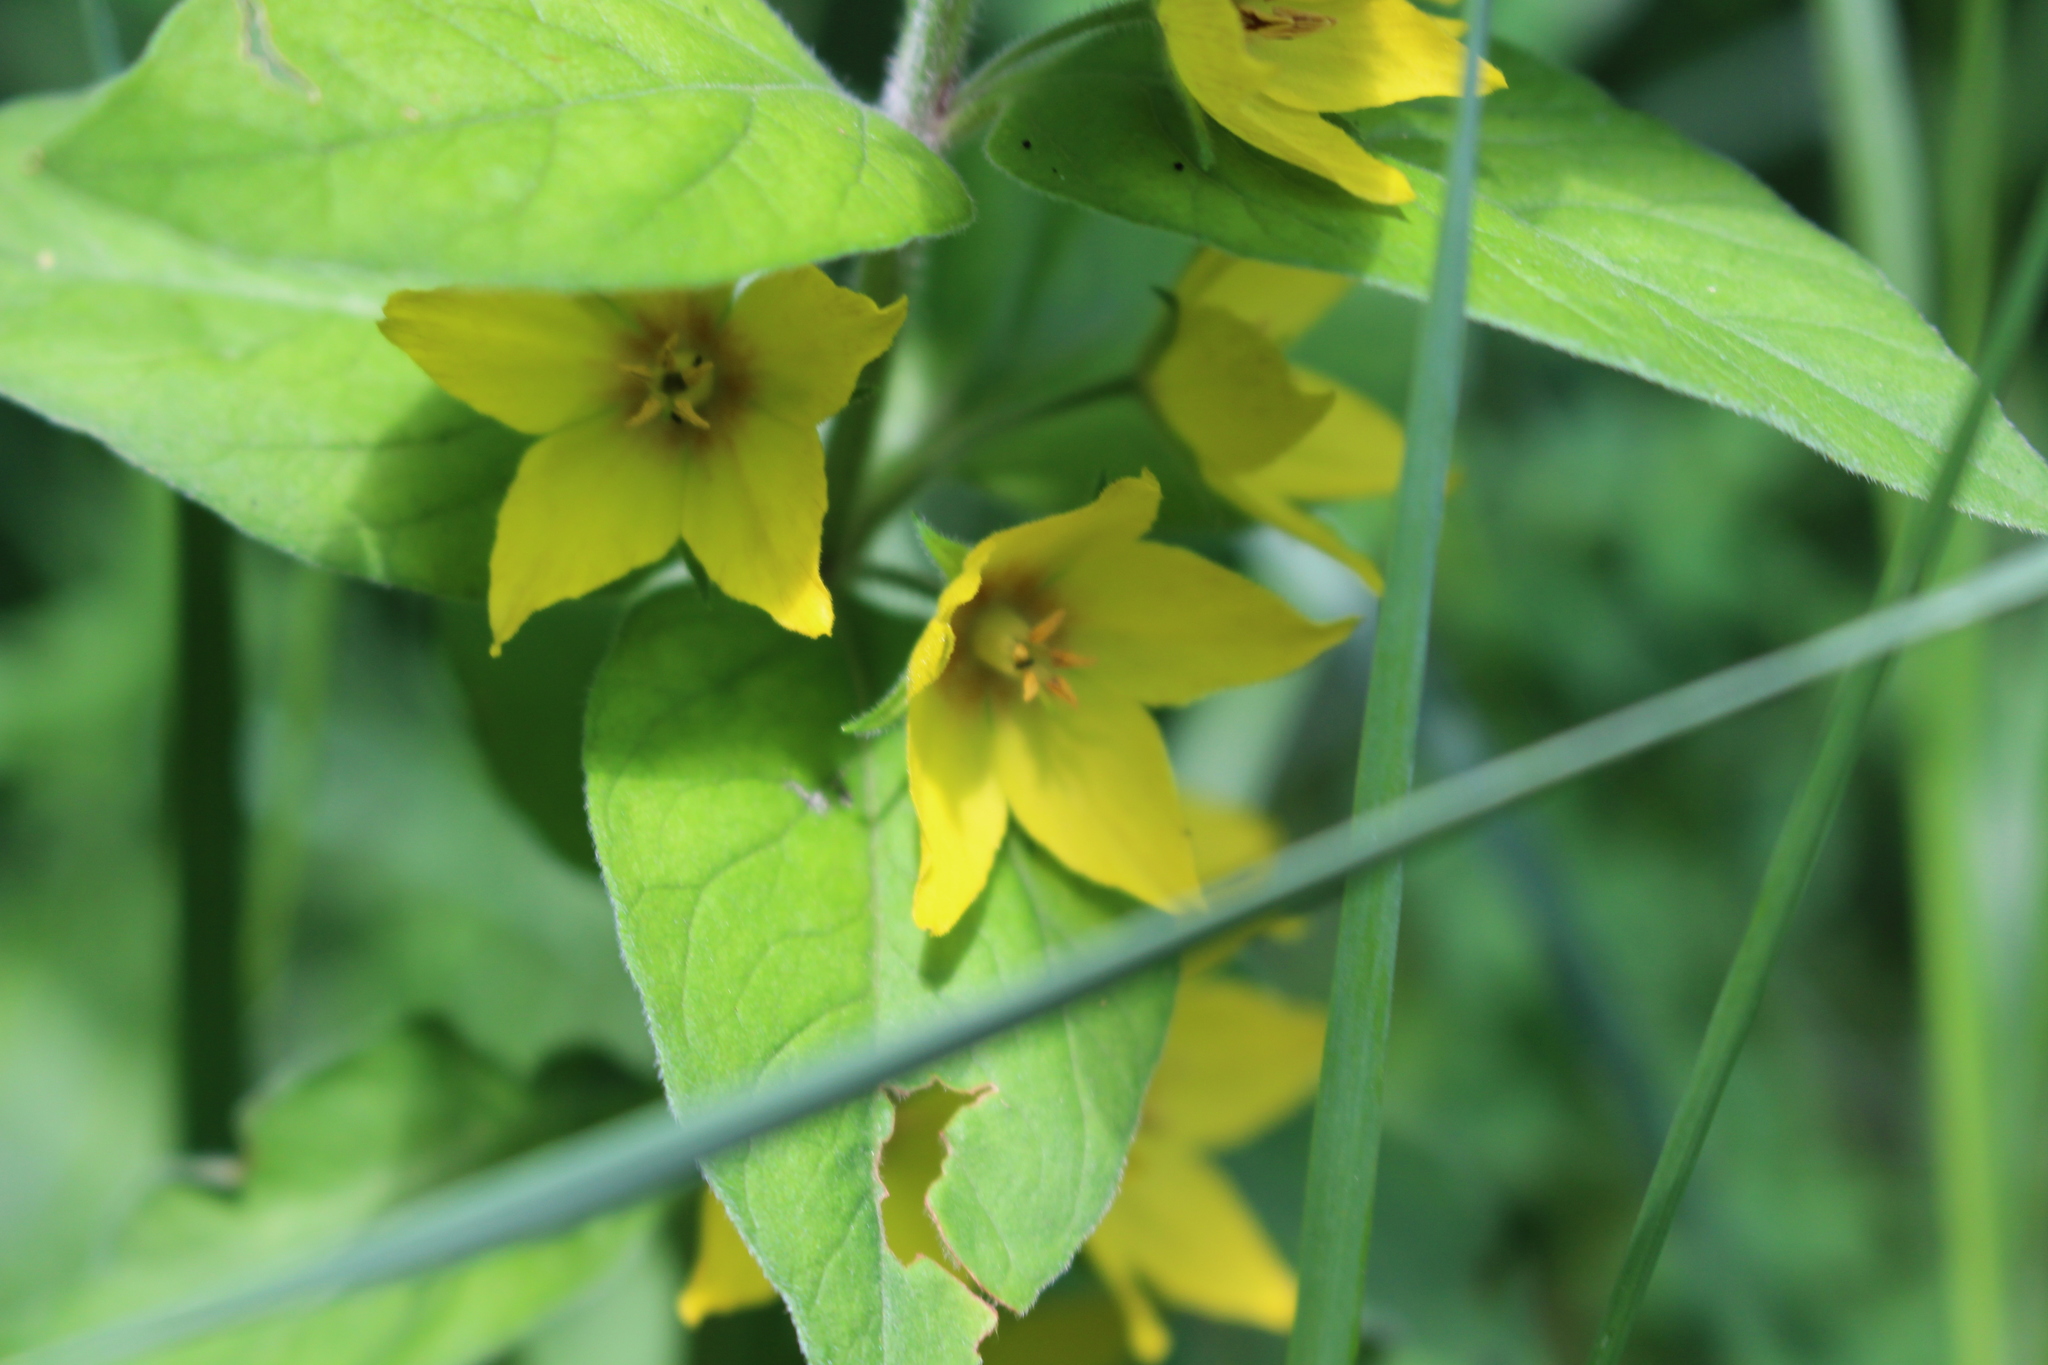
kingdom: Plantae
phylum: Tracheophyta
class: Magnoliopsida
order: Ericales
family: Primulaceae
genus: Lysimachia
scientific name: Lysimachia punctata
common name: Dotted loosestrife
